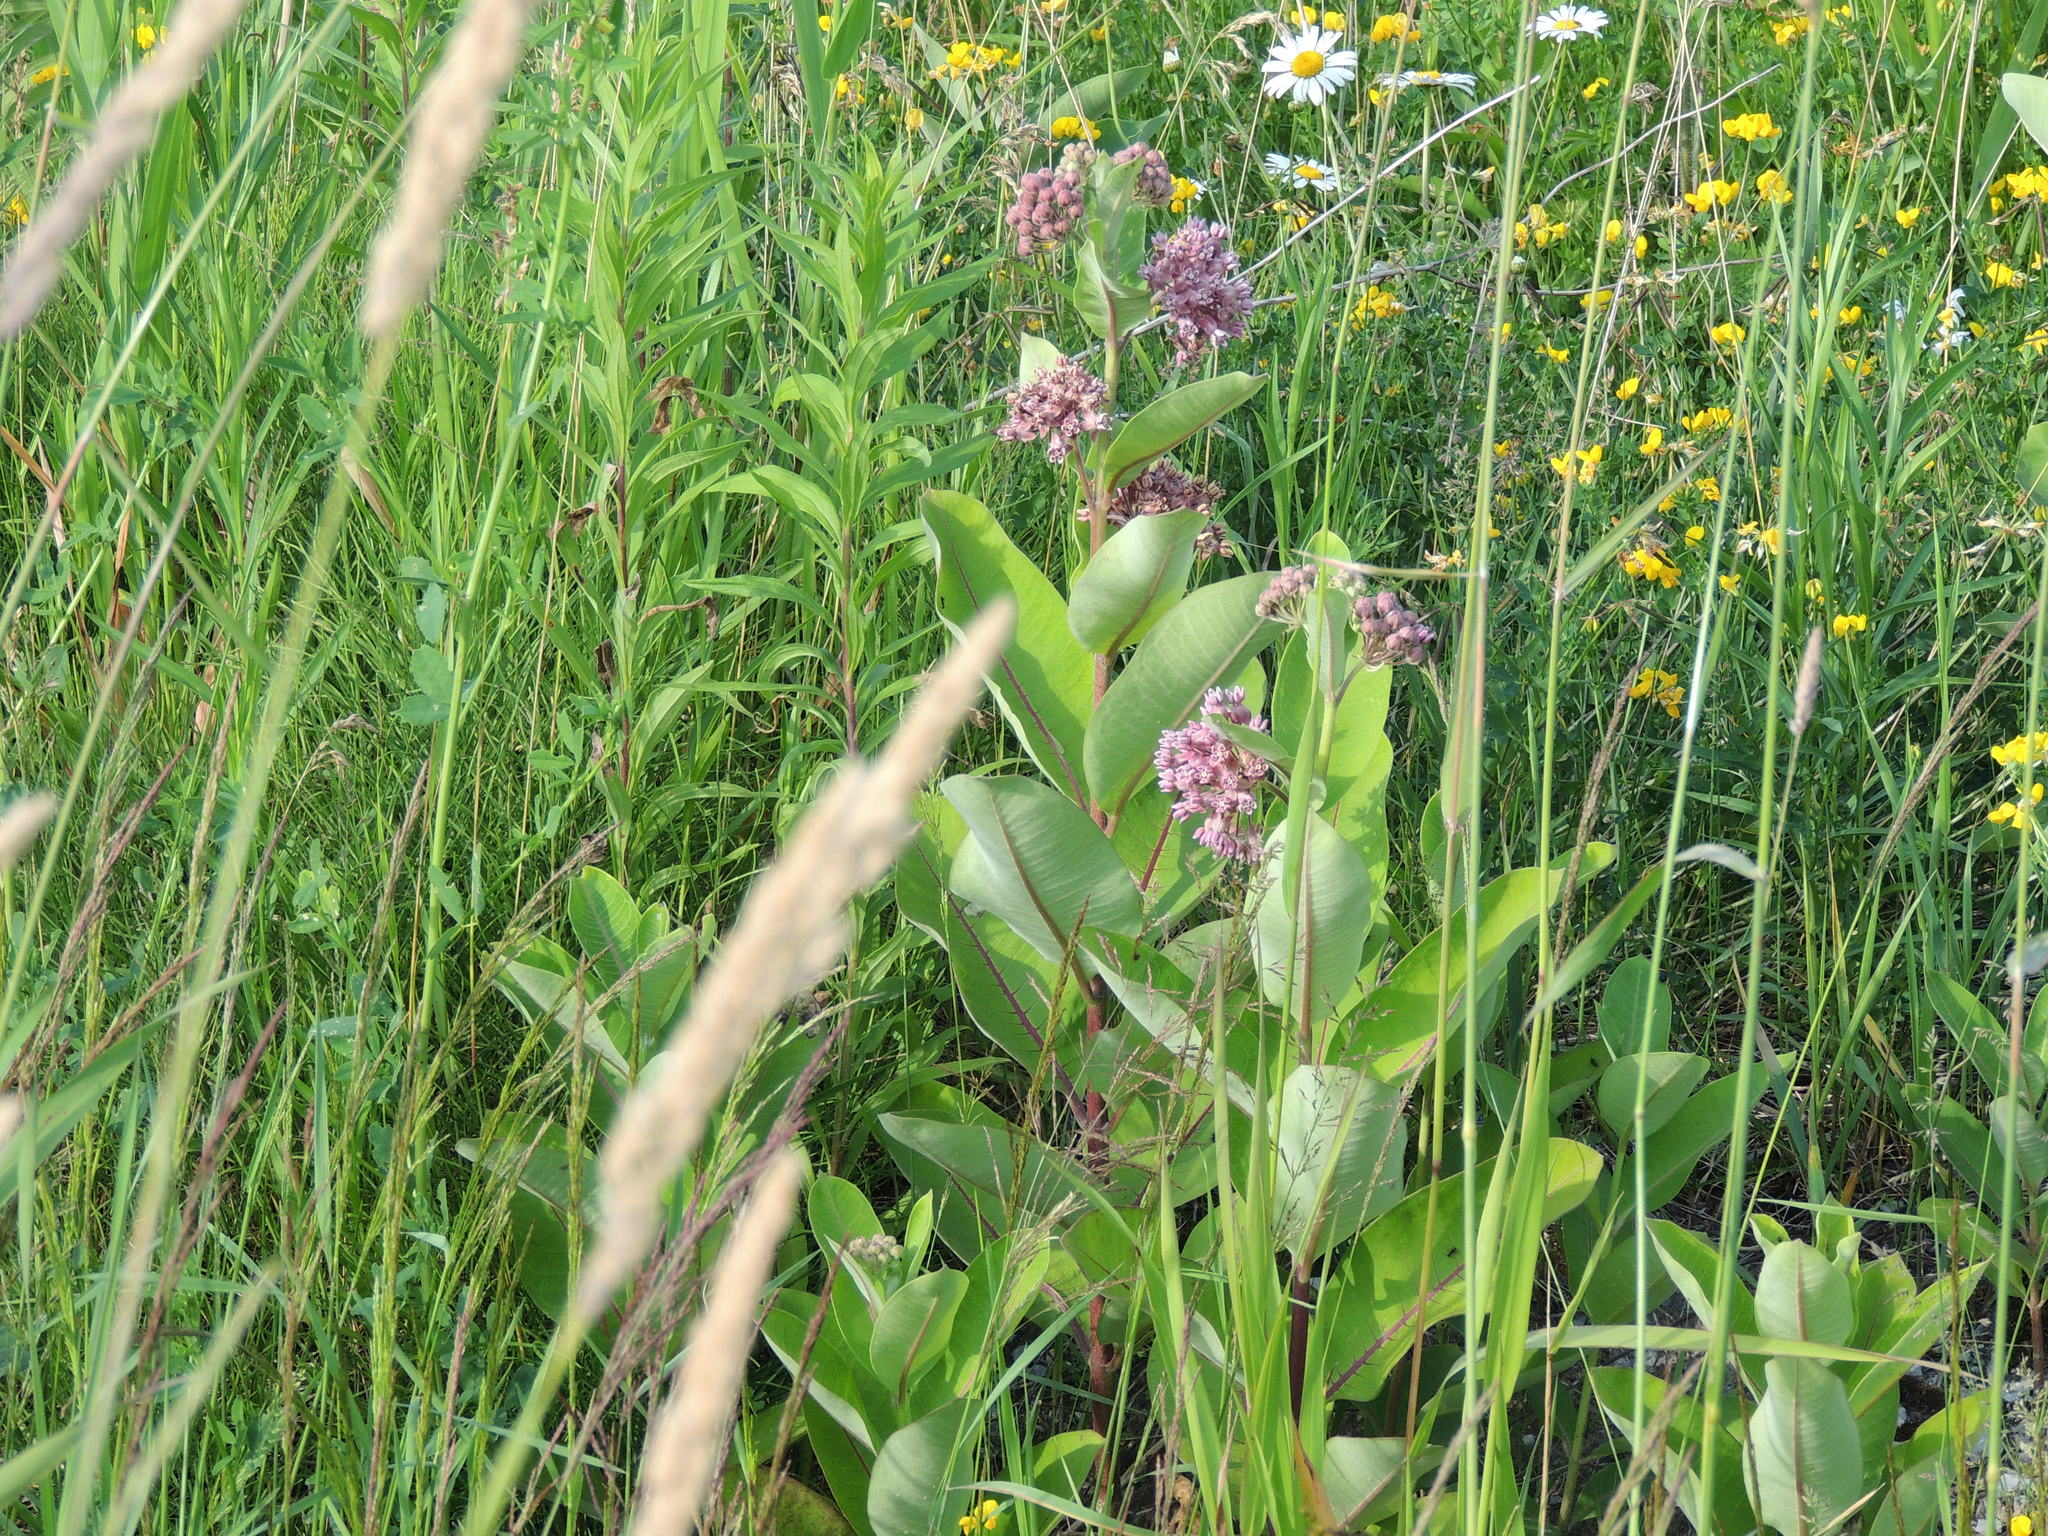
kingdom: Plantae
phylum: Tracheophyta
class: Magnoliopsida
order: Gentianales
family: Apocynaceae
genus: Asclepias
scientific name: Asclepias syriaca
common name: Common milkweed
